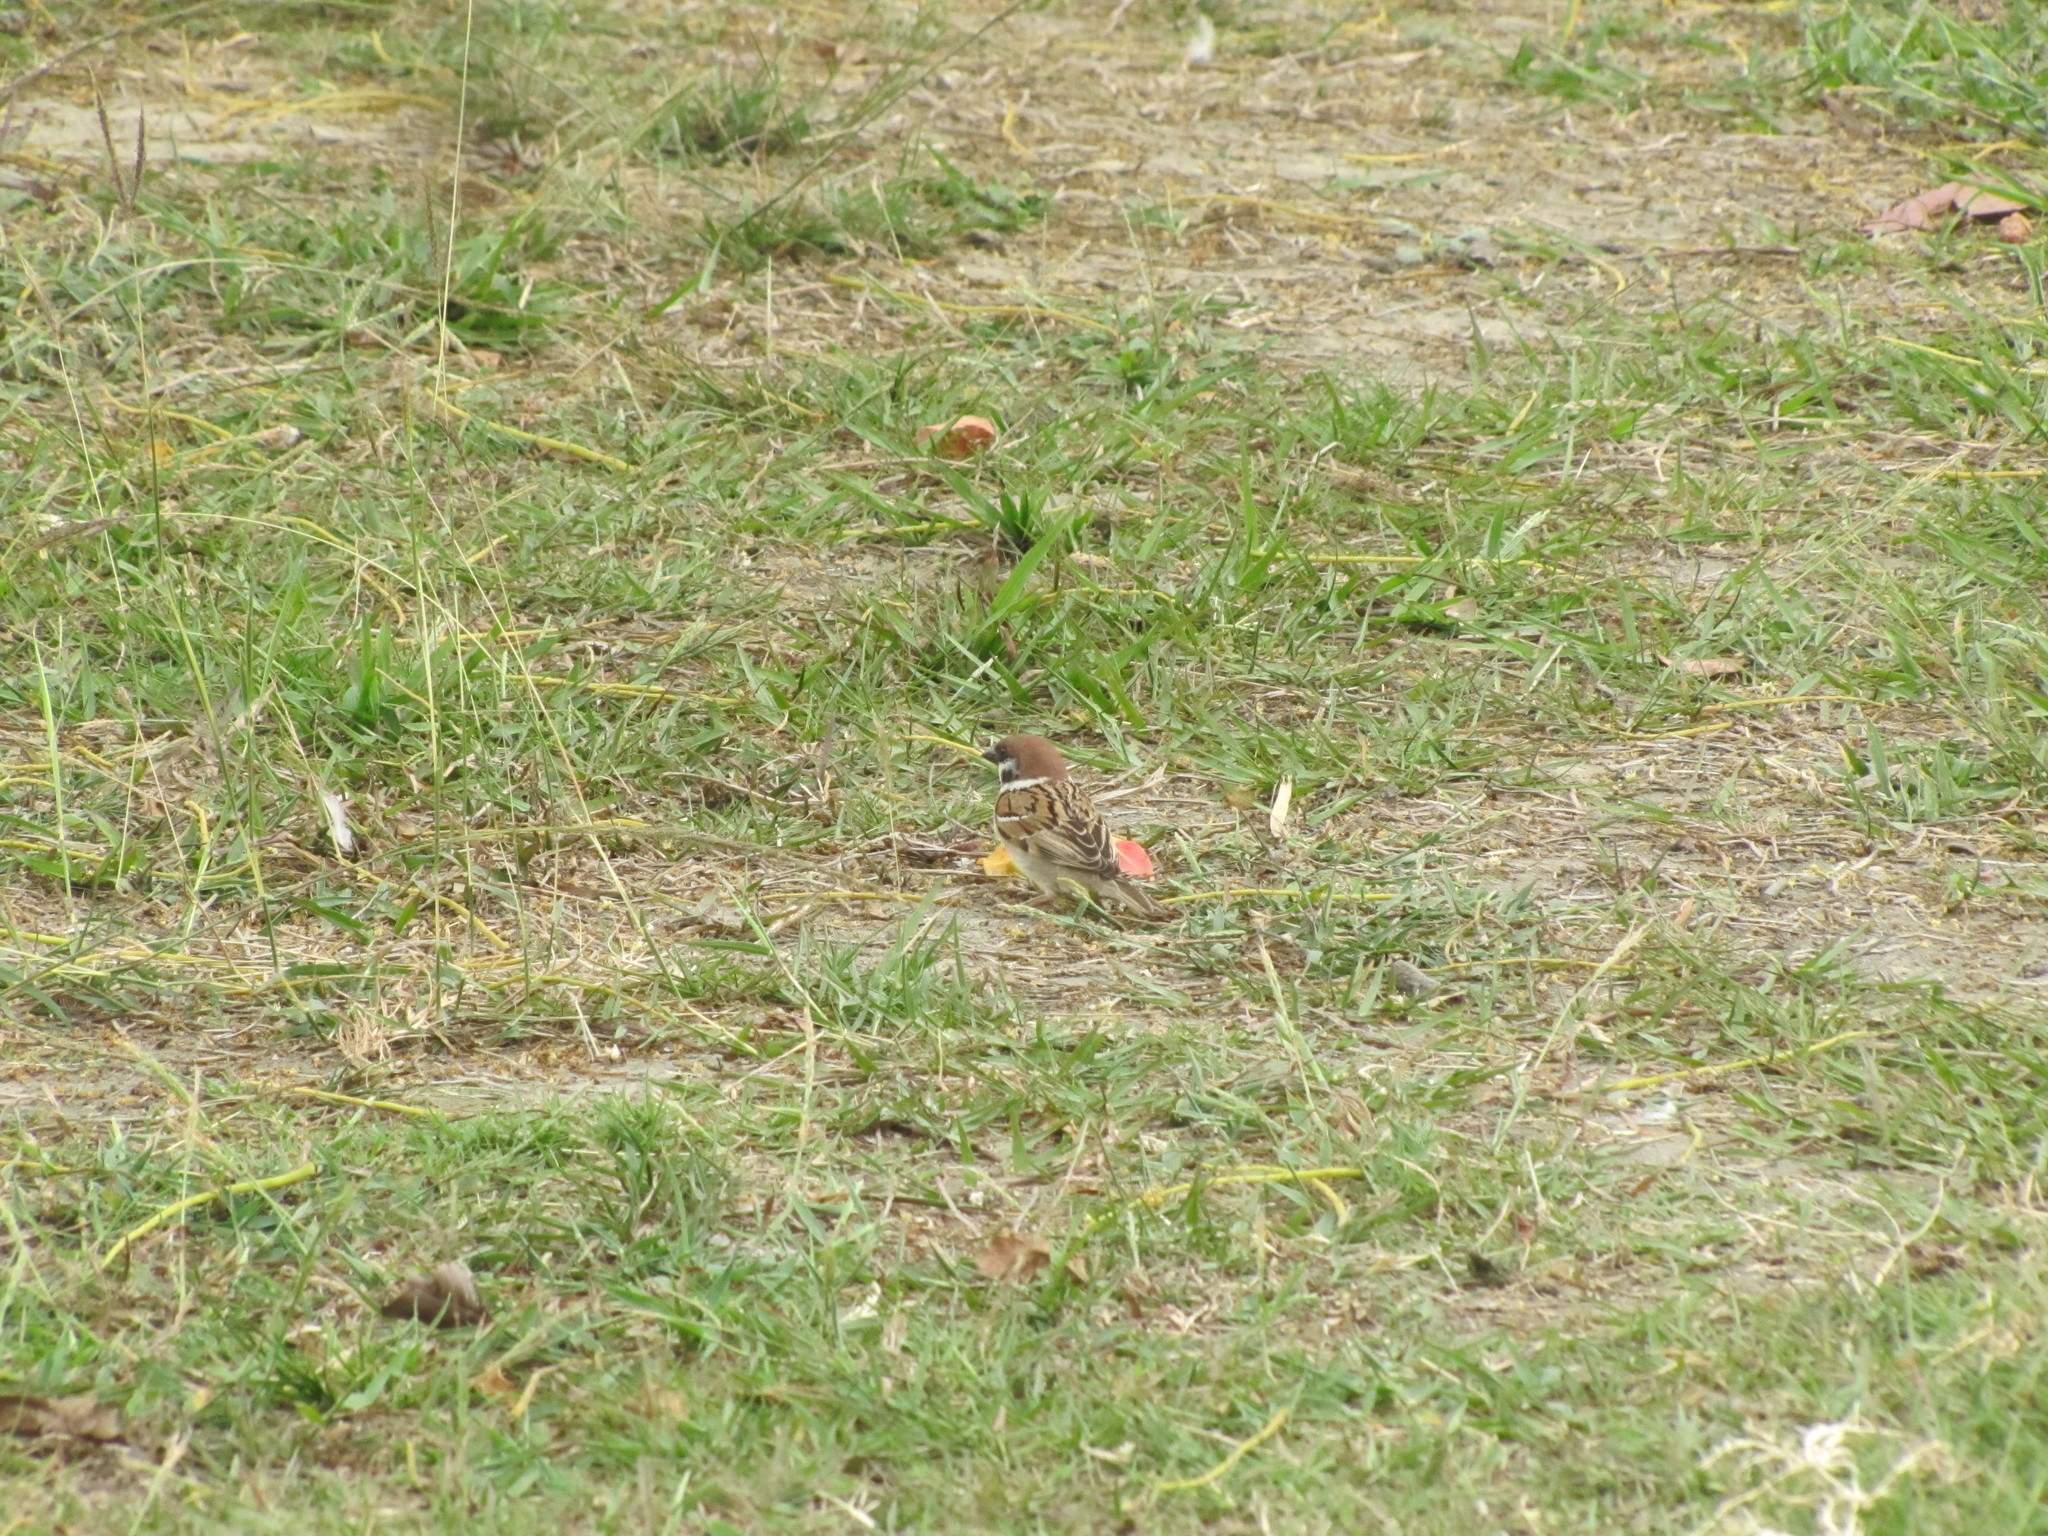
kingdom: Animalia
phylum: Chordata
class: Aves
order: Passeriformes
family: Passeridae
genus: Passer
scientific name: Passer montanus
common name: Eurasian tree sparrow
